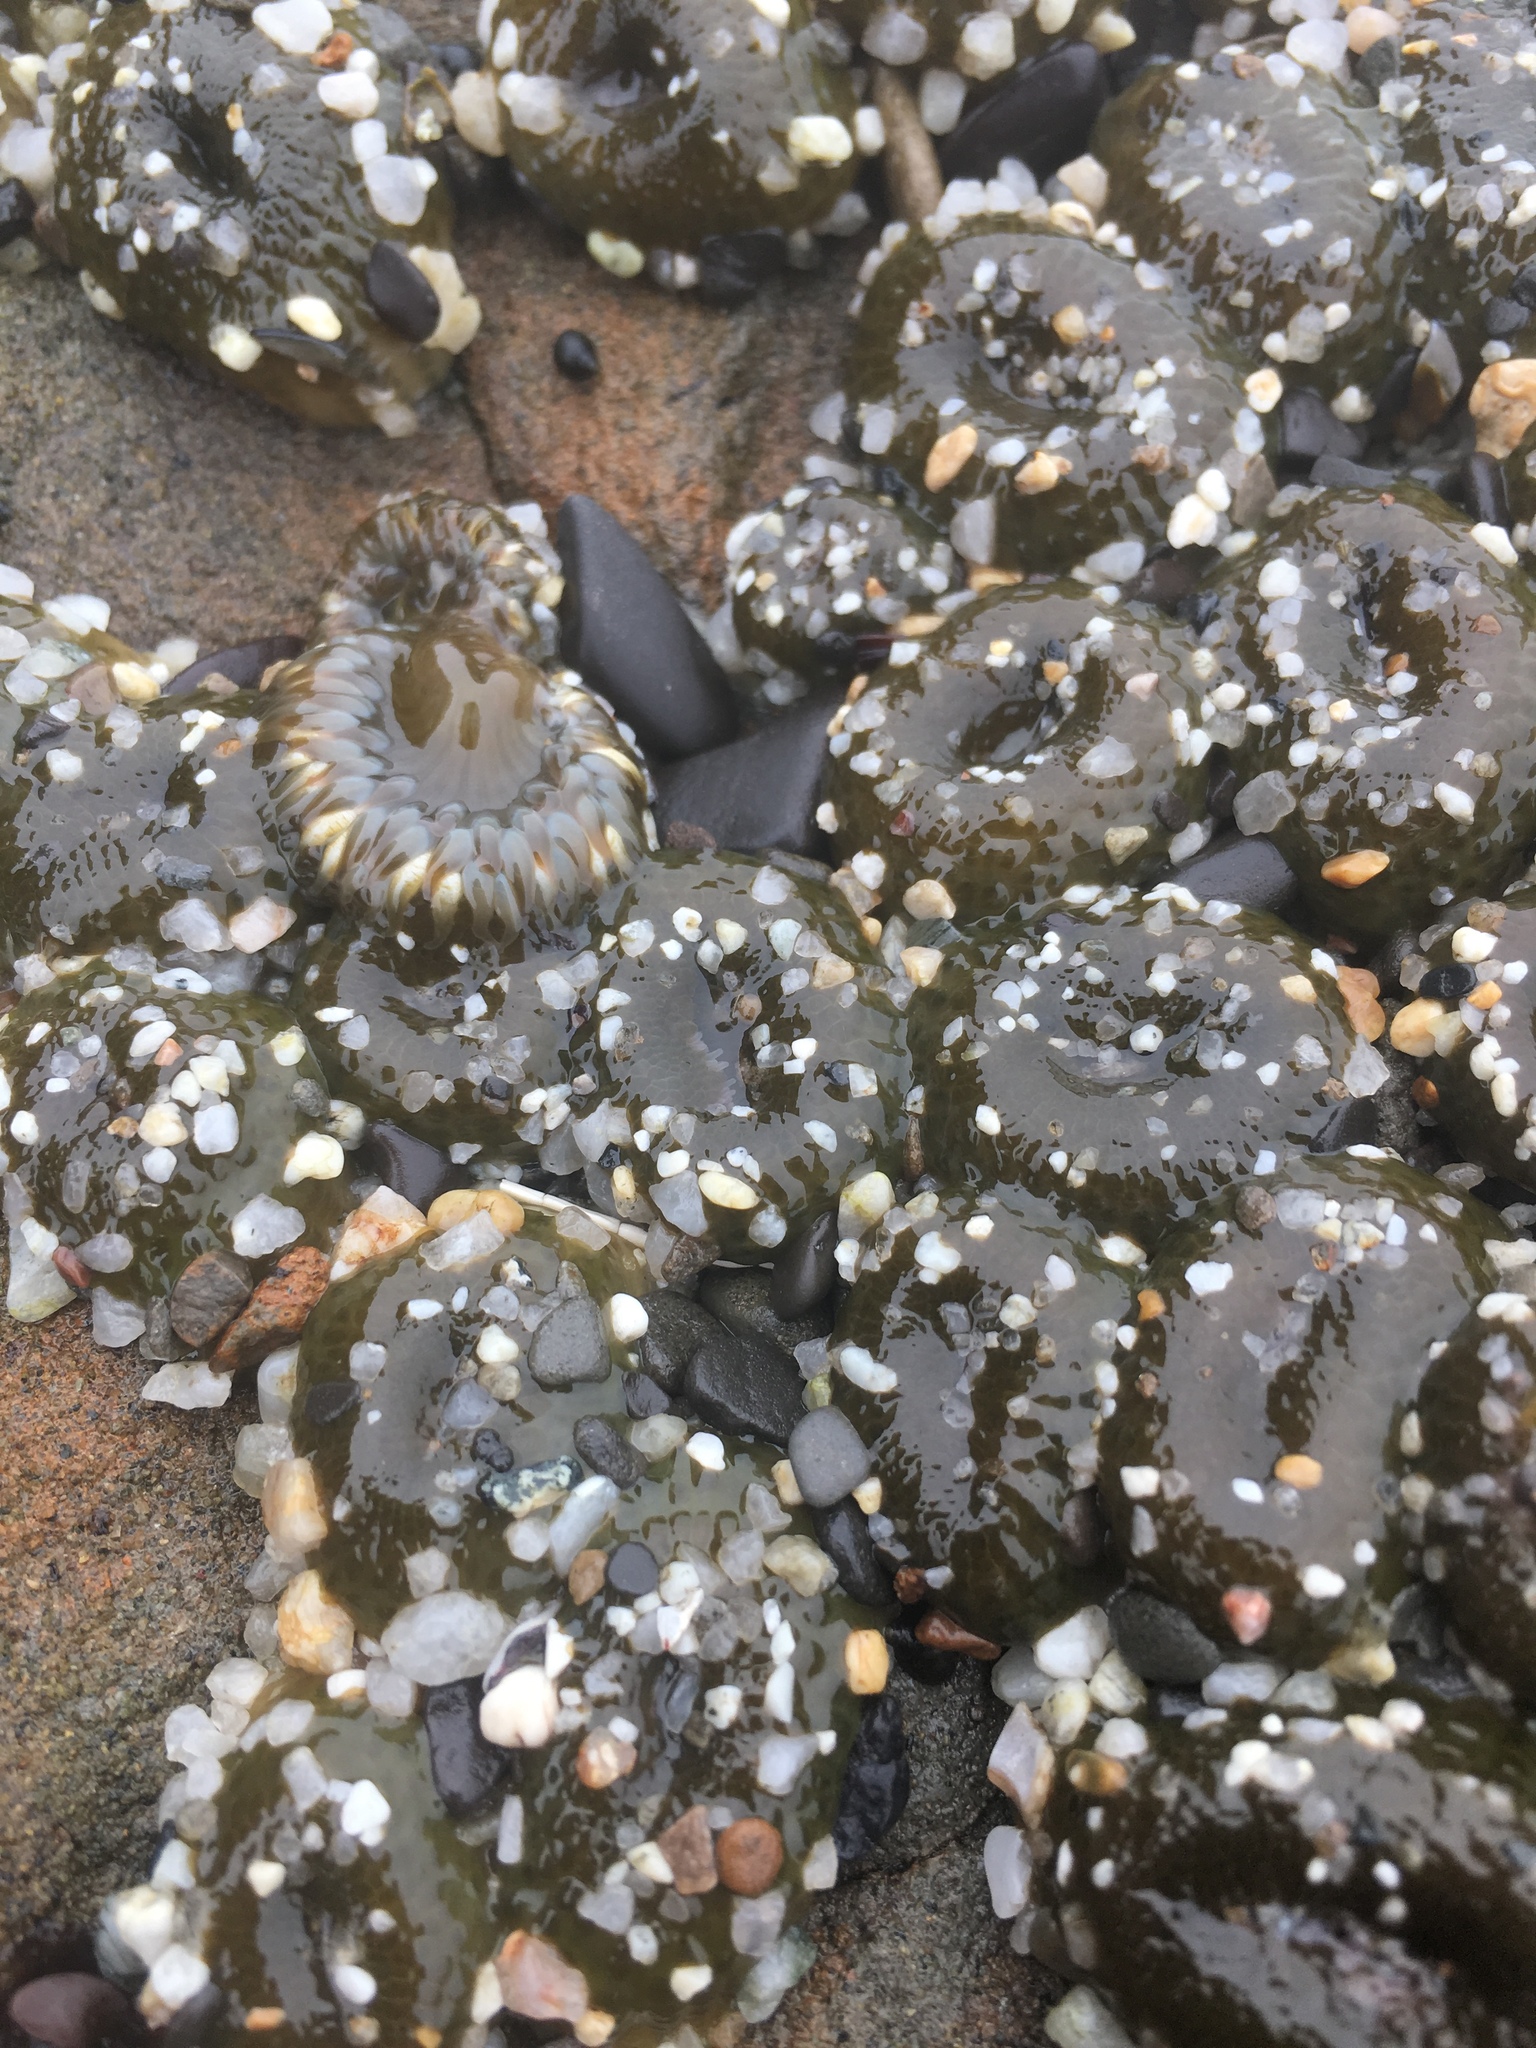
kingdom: Animalia
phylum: Cnidaria
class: Anthozoa
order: Actiniaria
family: Actiniidae
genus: Anthopleura
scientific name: Anthopleura elegantissima
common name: Clonal anemone
